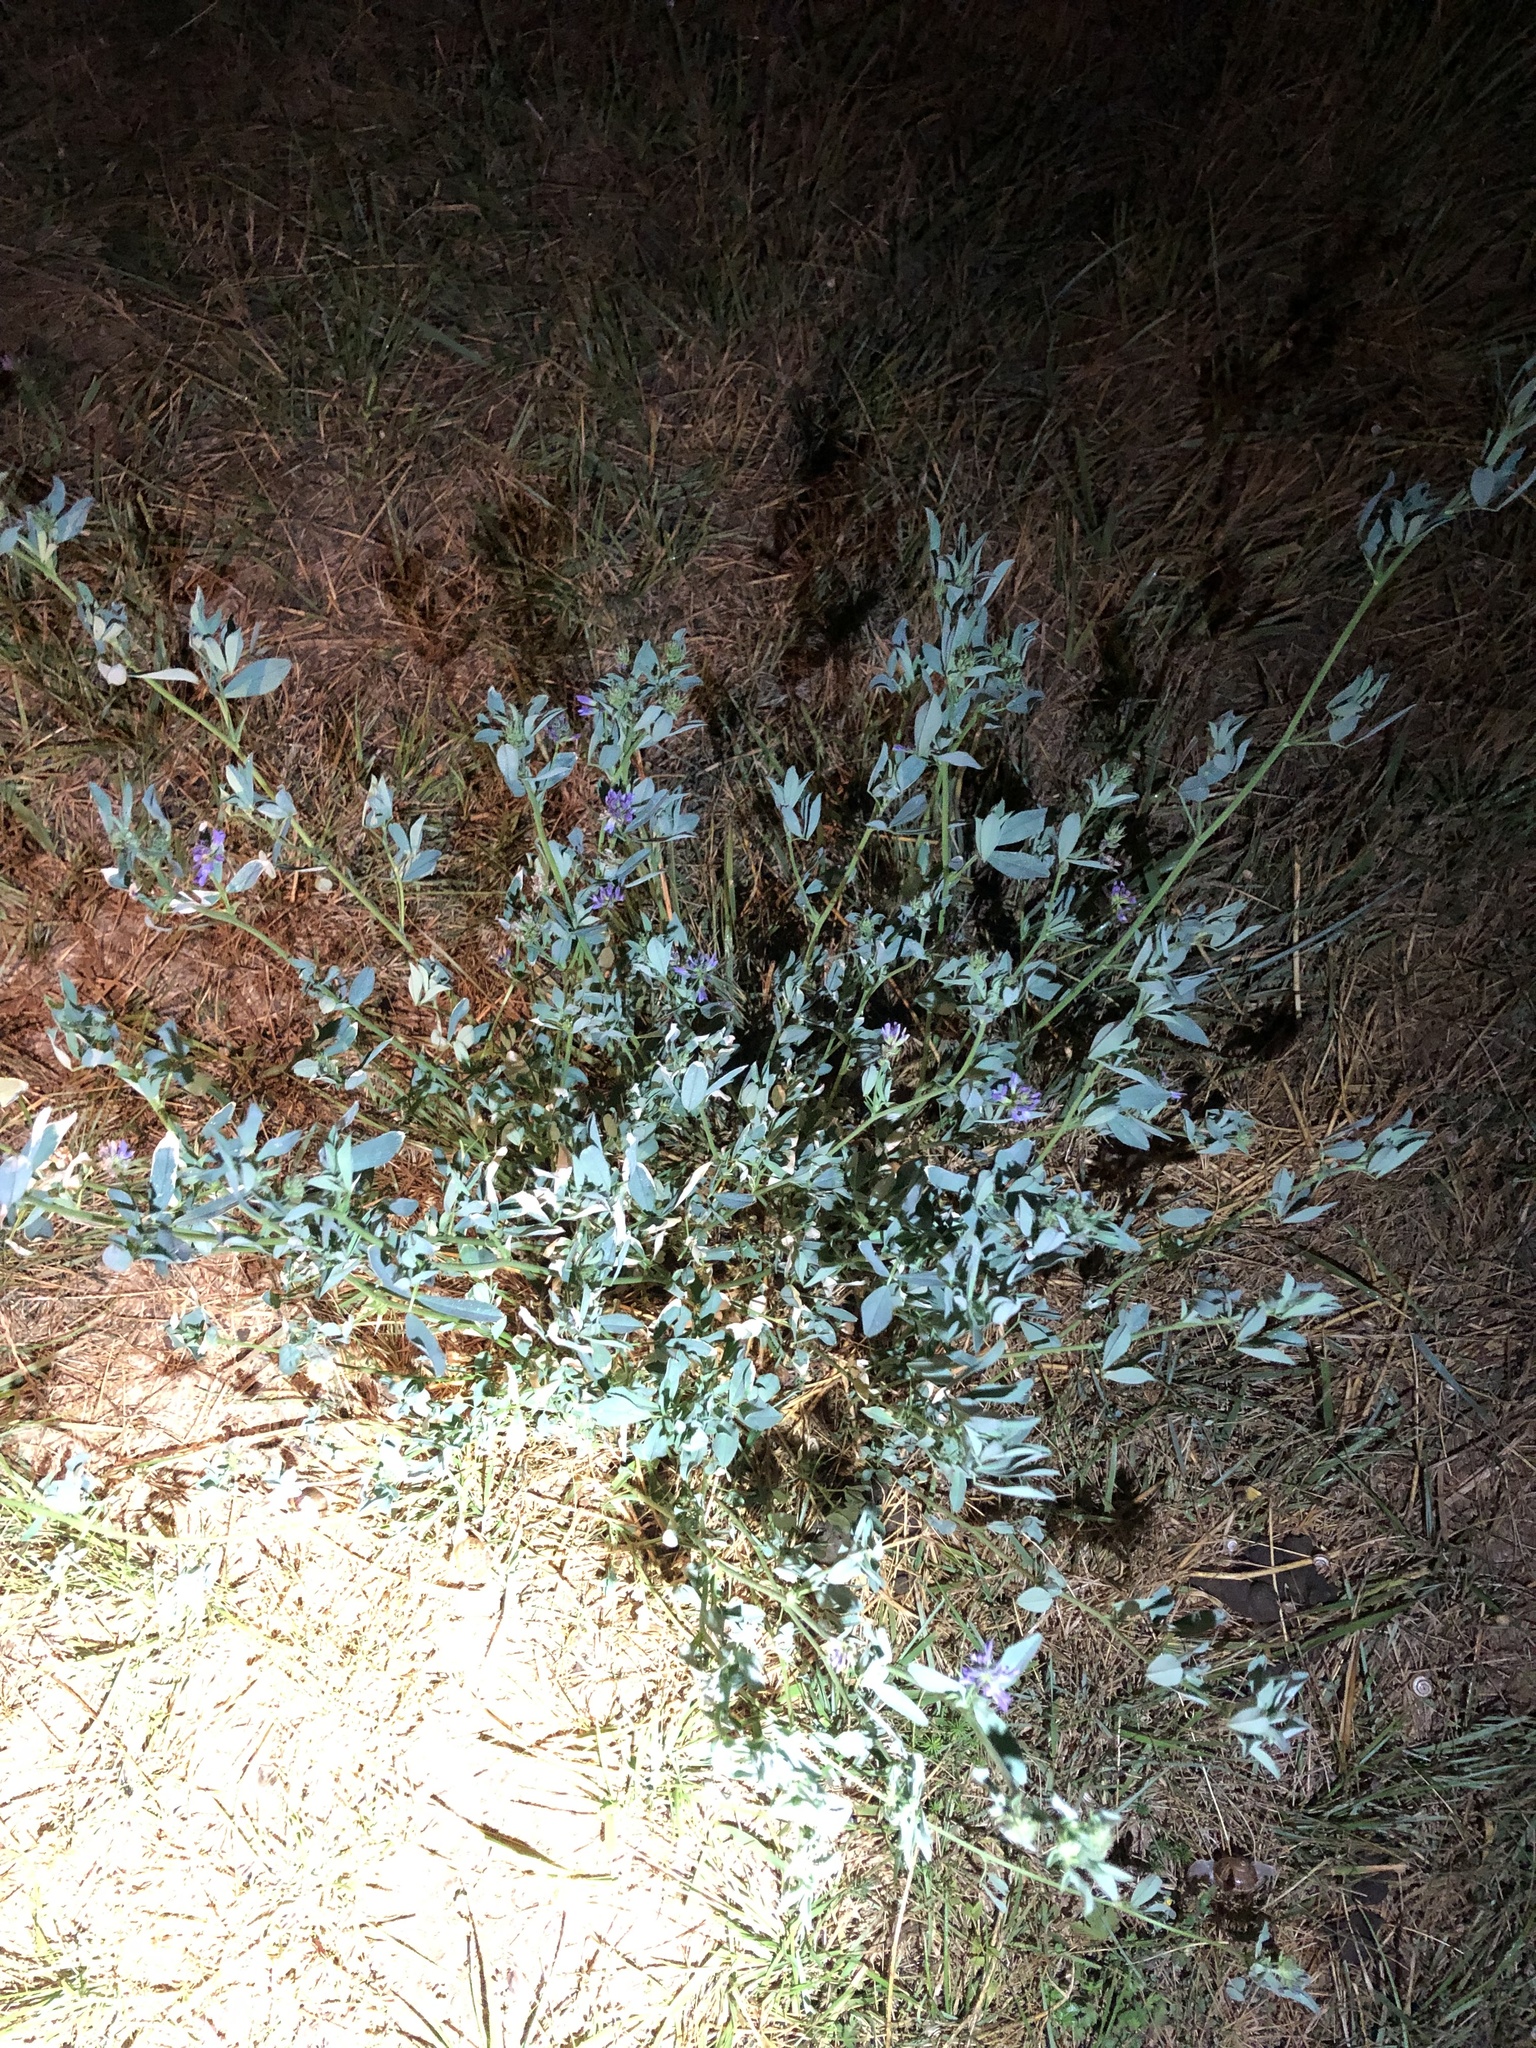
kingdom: Plantae
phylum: Tracheophyta
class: Magnoliopsida
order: Fabales
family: Fabaceae
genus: Medicago
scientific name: Medicago sativa
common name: Alfalfa
